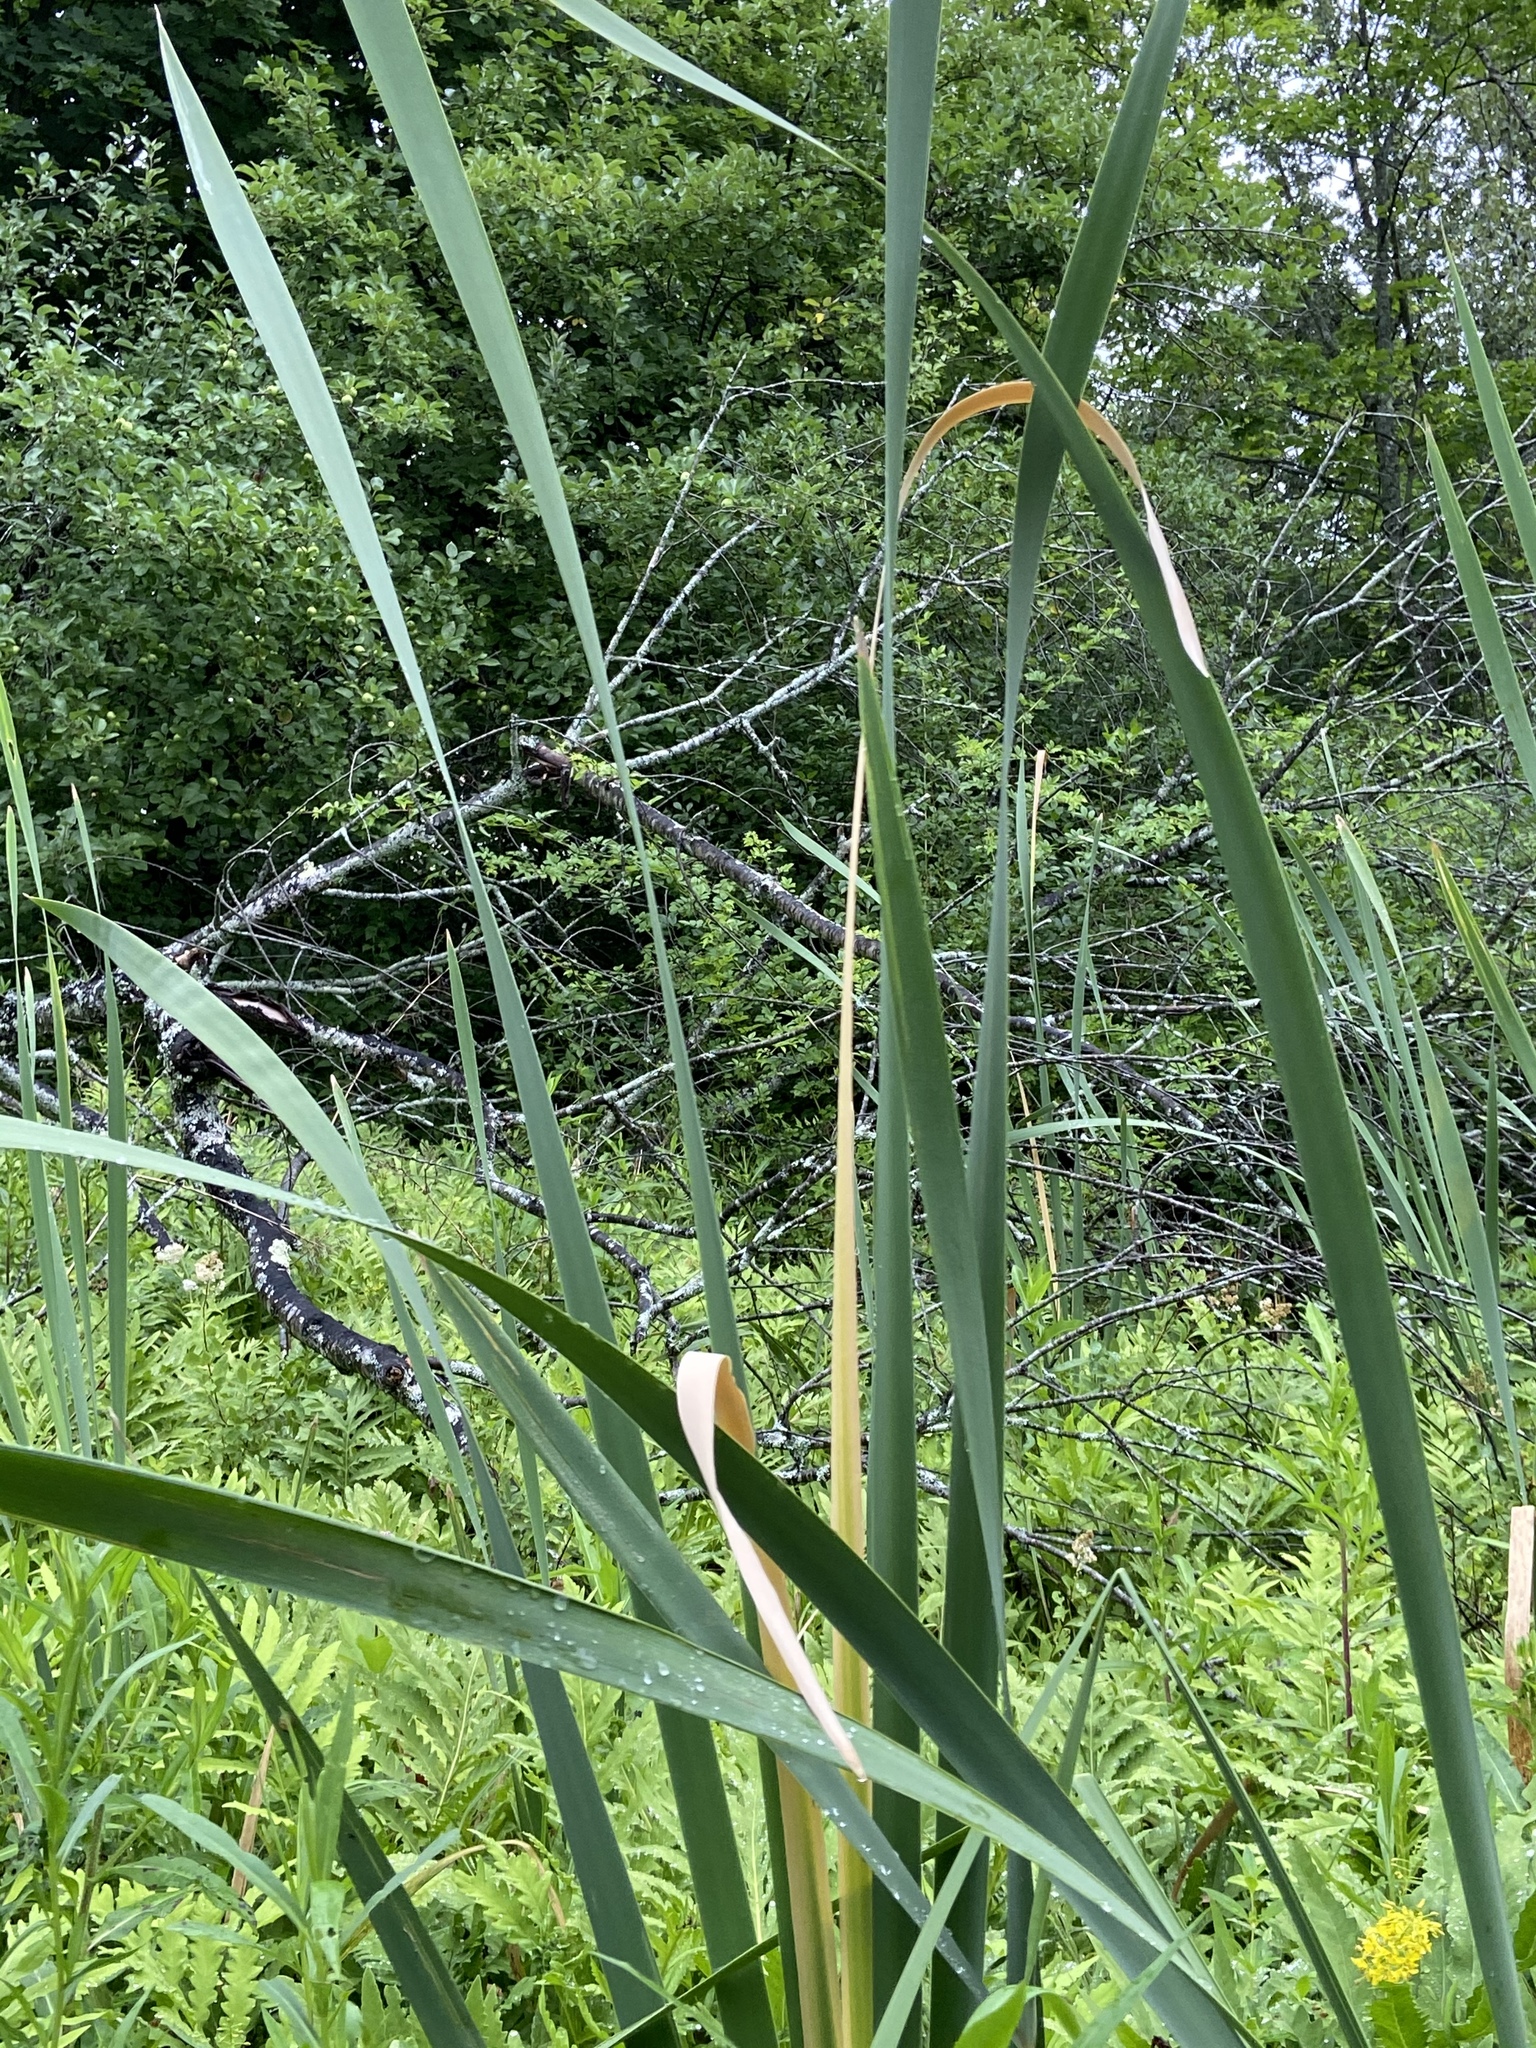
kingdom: Plantae
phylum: Tracheophyta
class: Liliopsida
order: Poales
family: Typhaceae
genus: Typha
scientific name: Typha latifolia
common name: Broadleaf cattail
